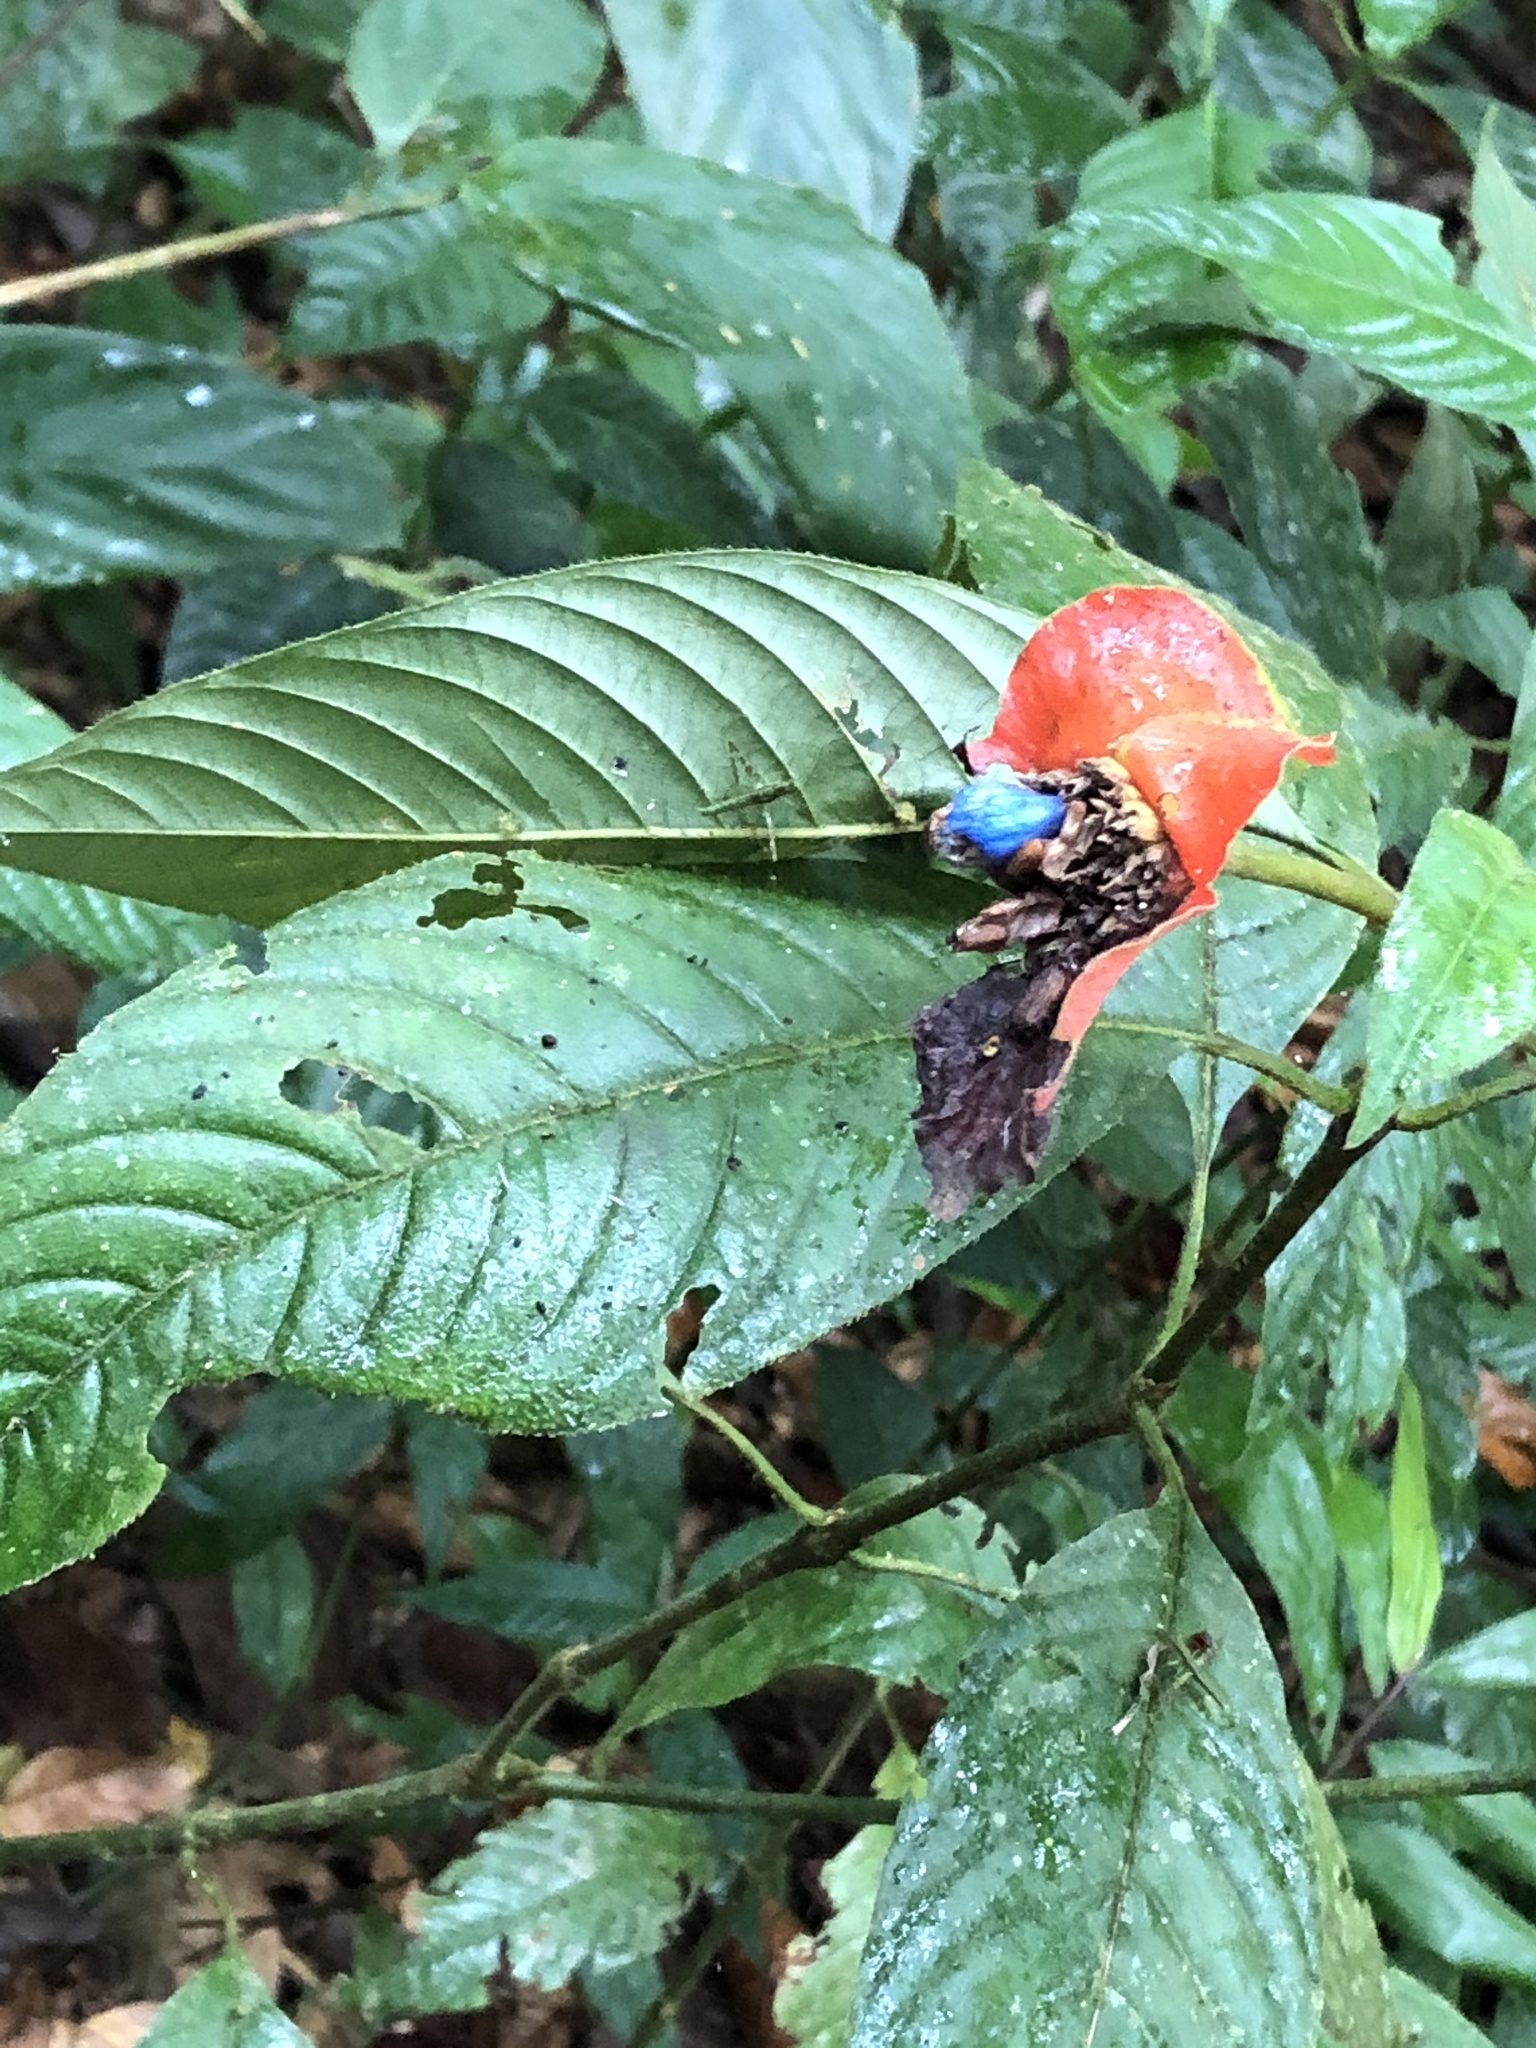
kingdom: Plantae
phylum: Tracheophyta
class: Magnoliopsida
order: Gentianales
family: Rubiaceae
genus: Palicourea
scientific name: Palicourea tomentosa
